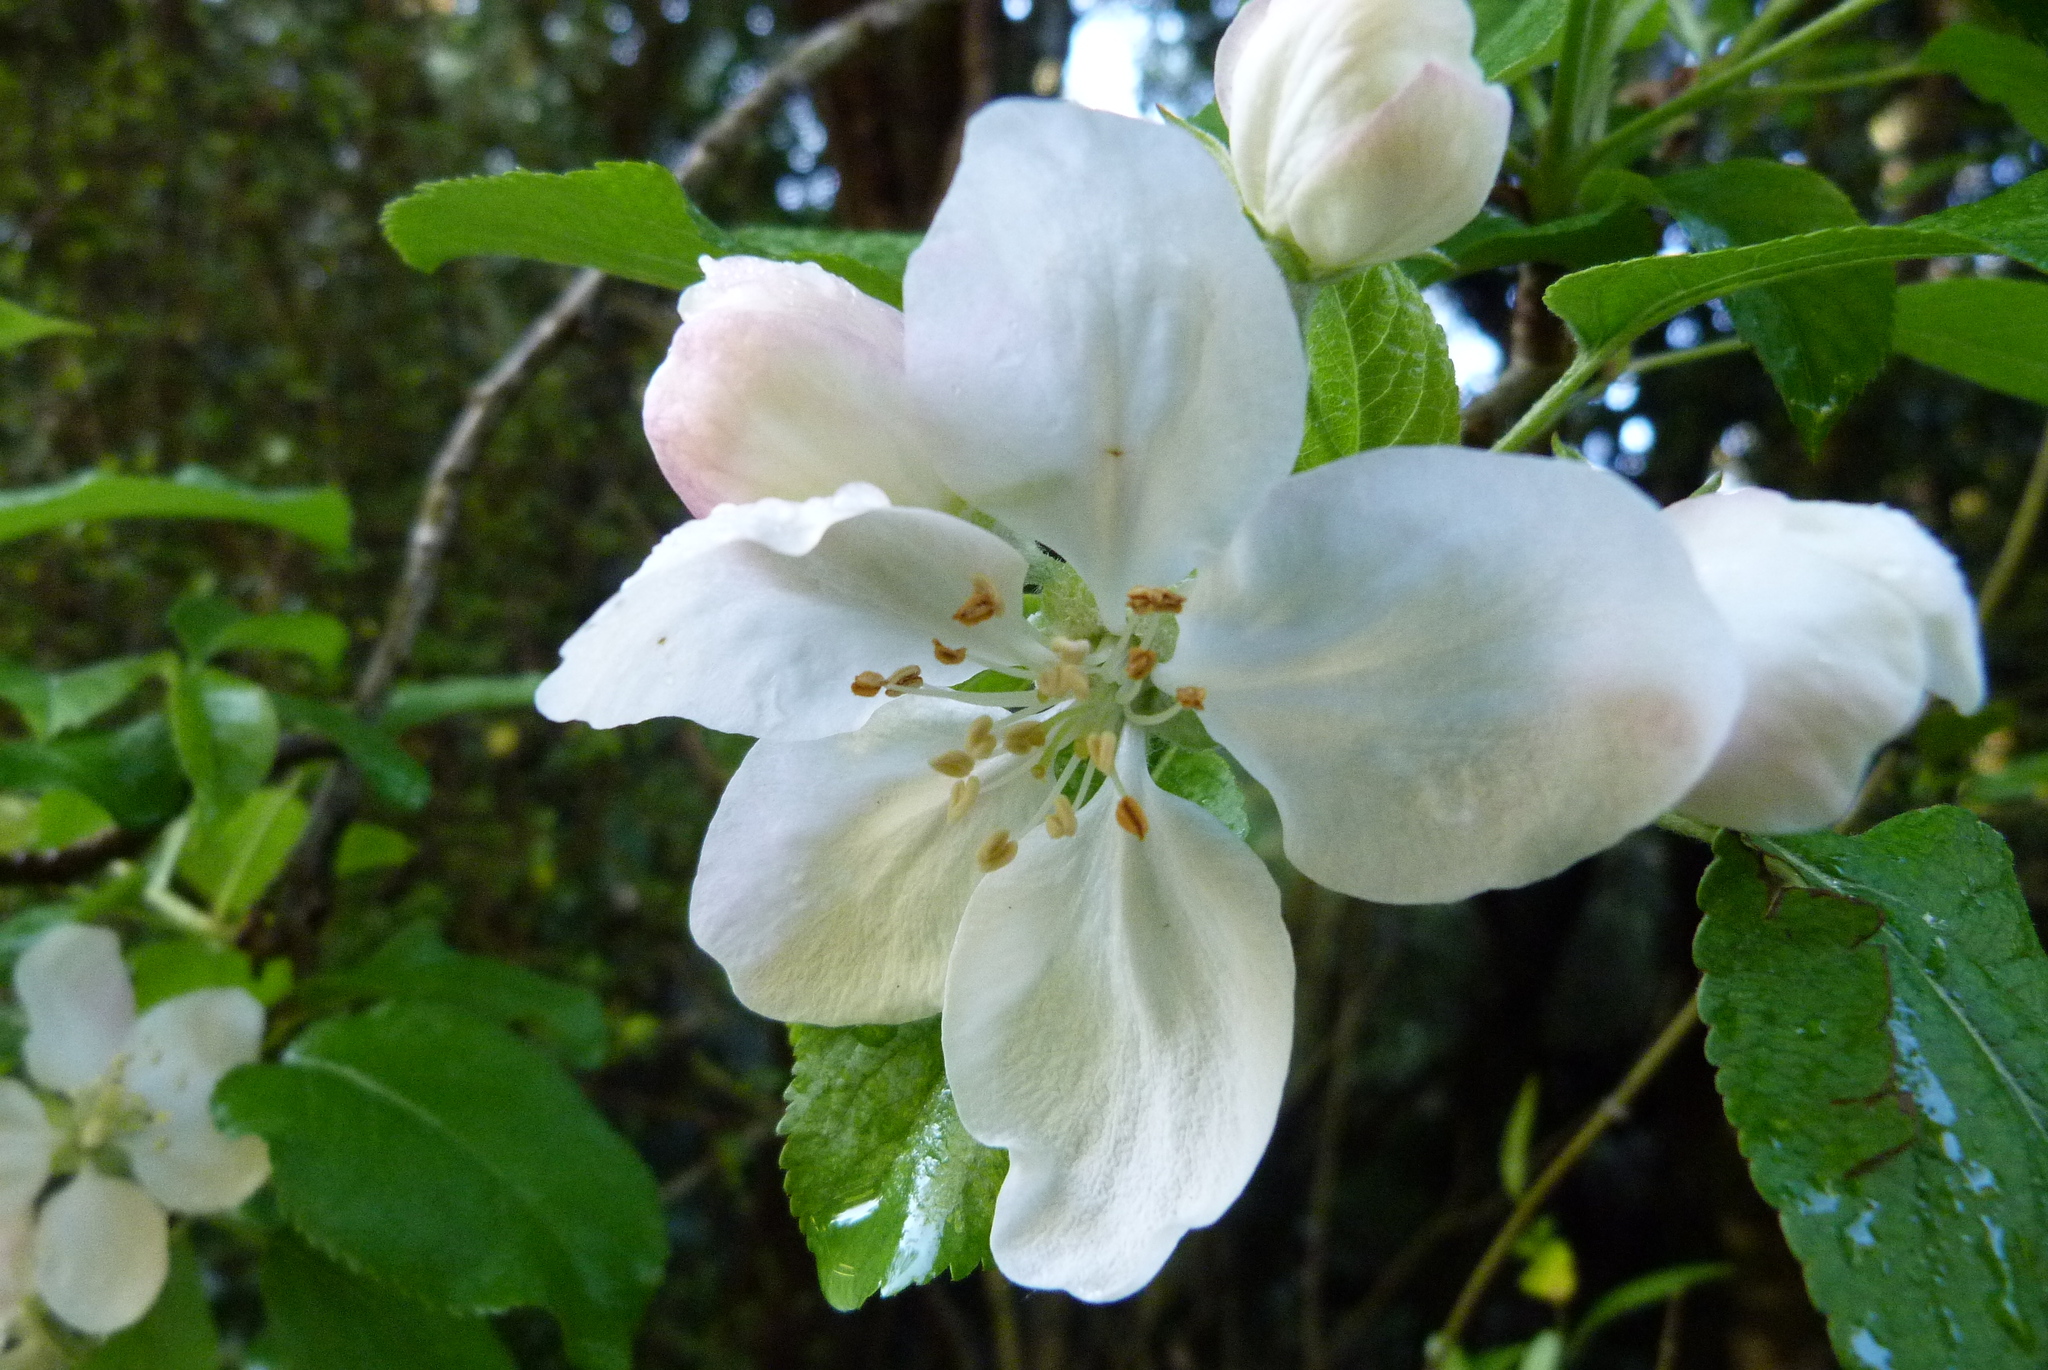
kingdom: Plantae
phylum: Tracheophyta
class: Magnoliopsida
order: Rosales
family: Rosaceae
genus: Malus
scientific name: Malus domestica
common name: Apple
